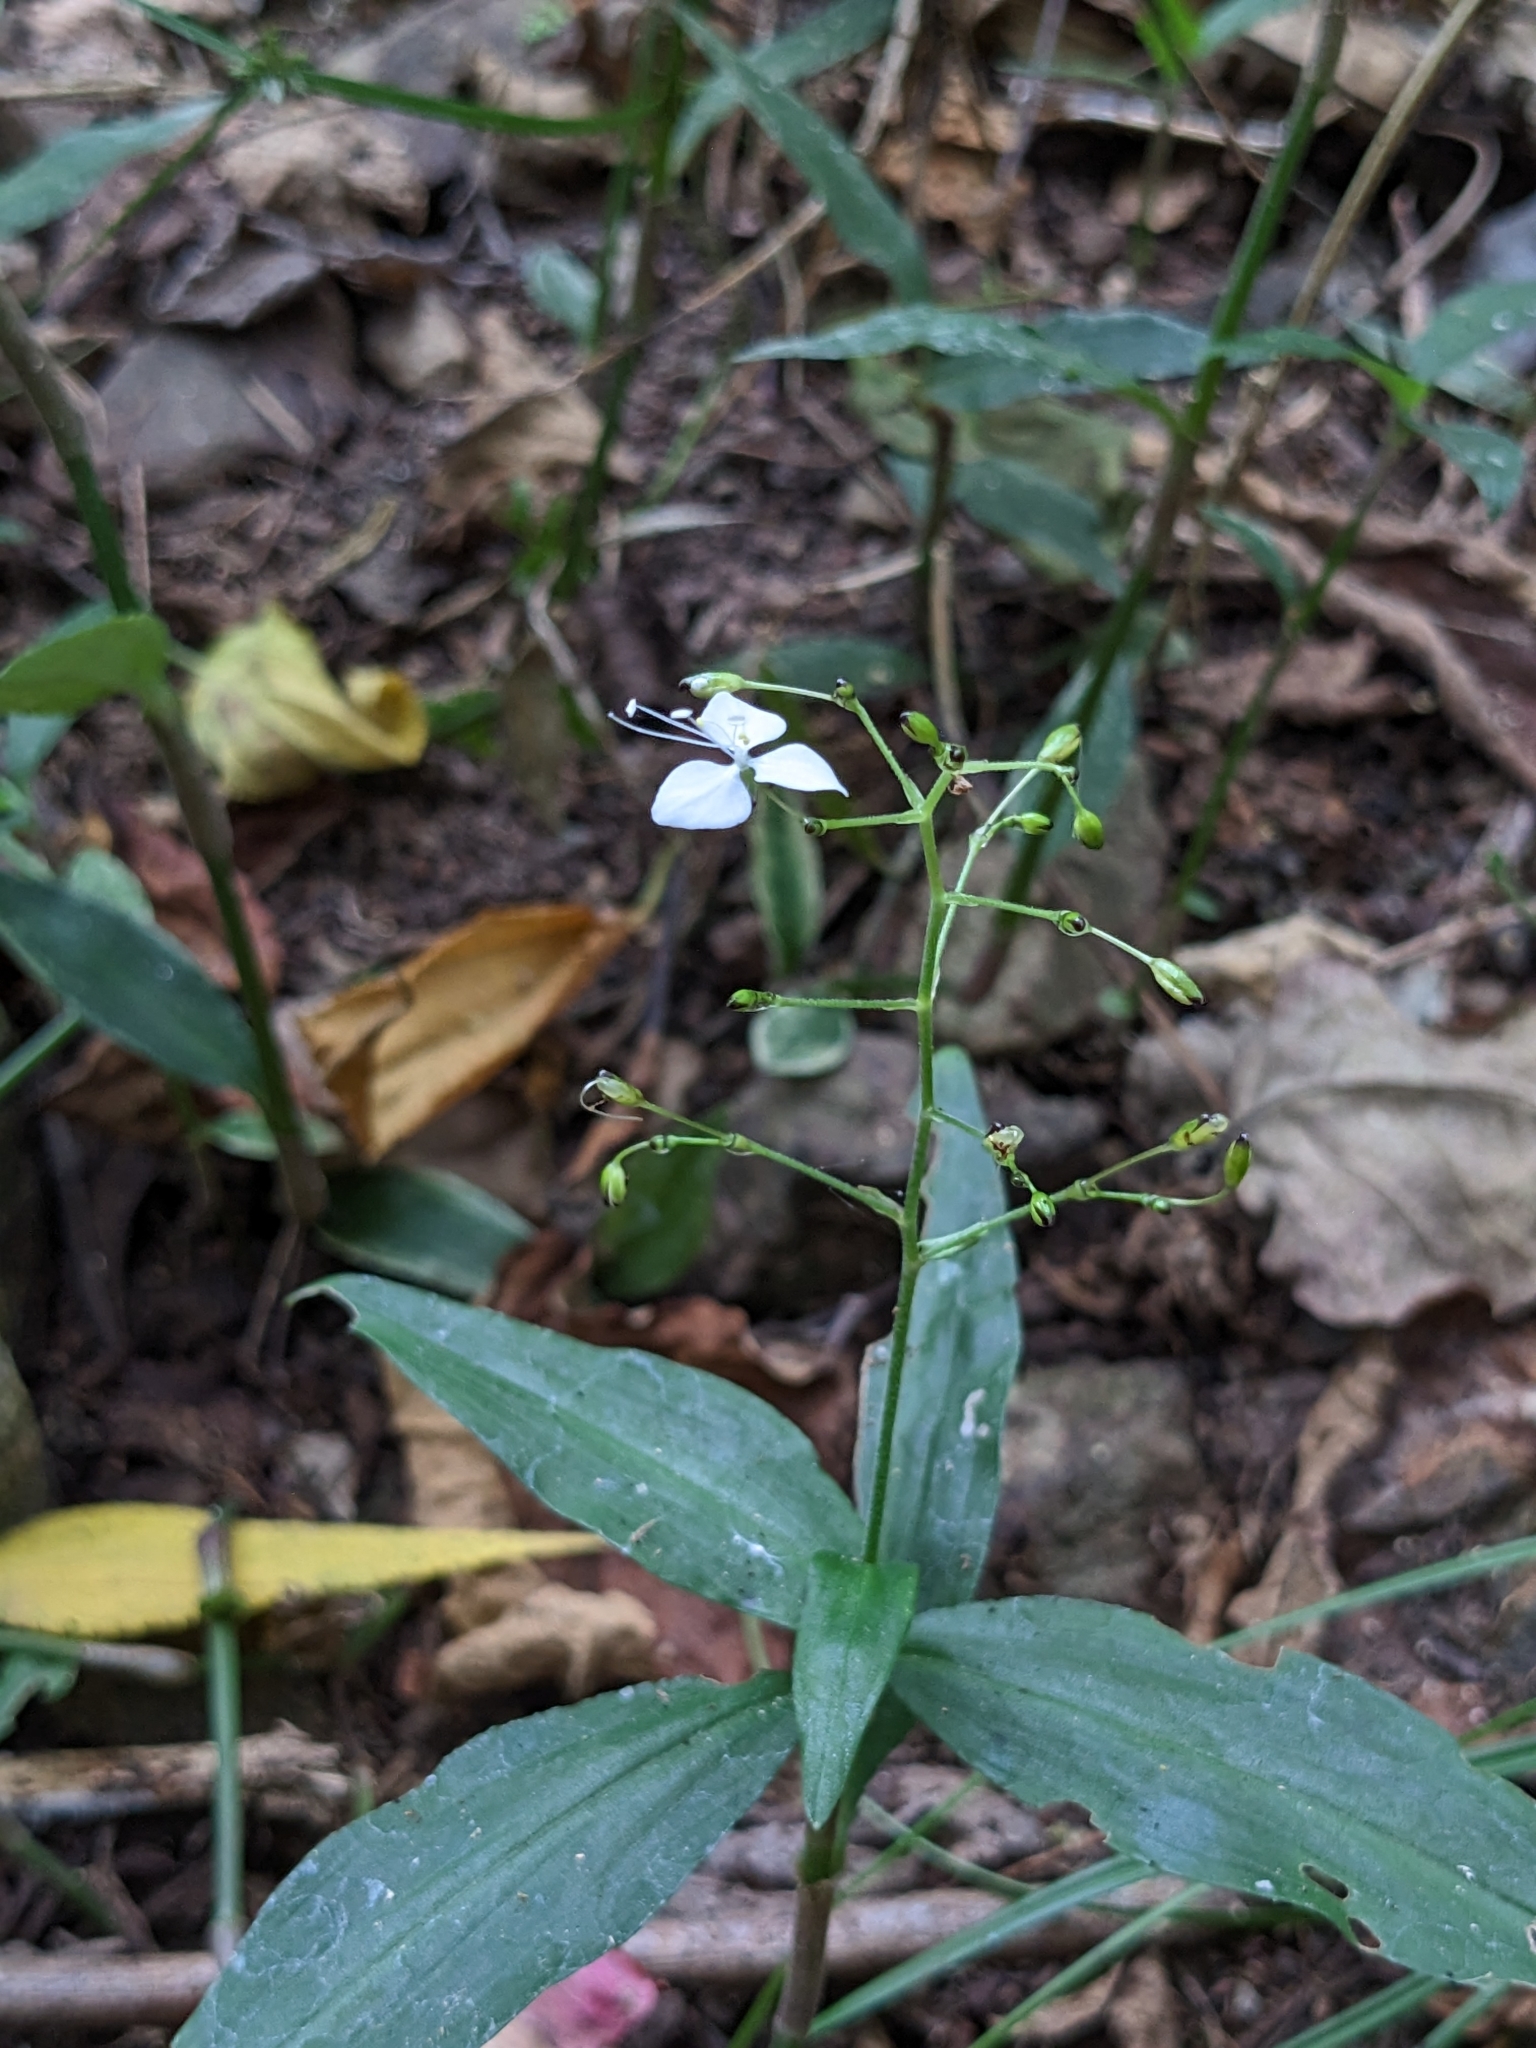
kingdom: Plantae
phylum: Tracheophyta
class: Liliopsida
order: Commelinales
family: Commelinaceae
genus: Aneilema
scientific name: Aneilema acuminatum
